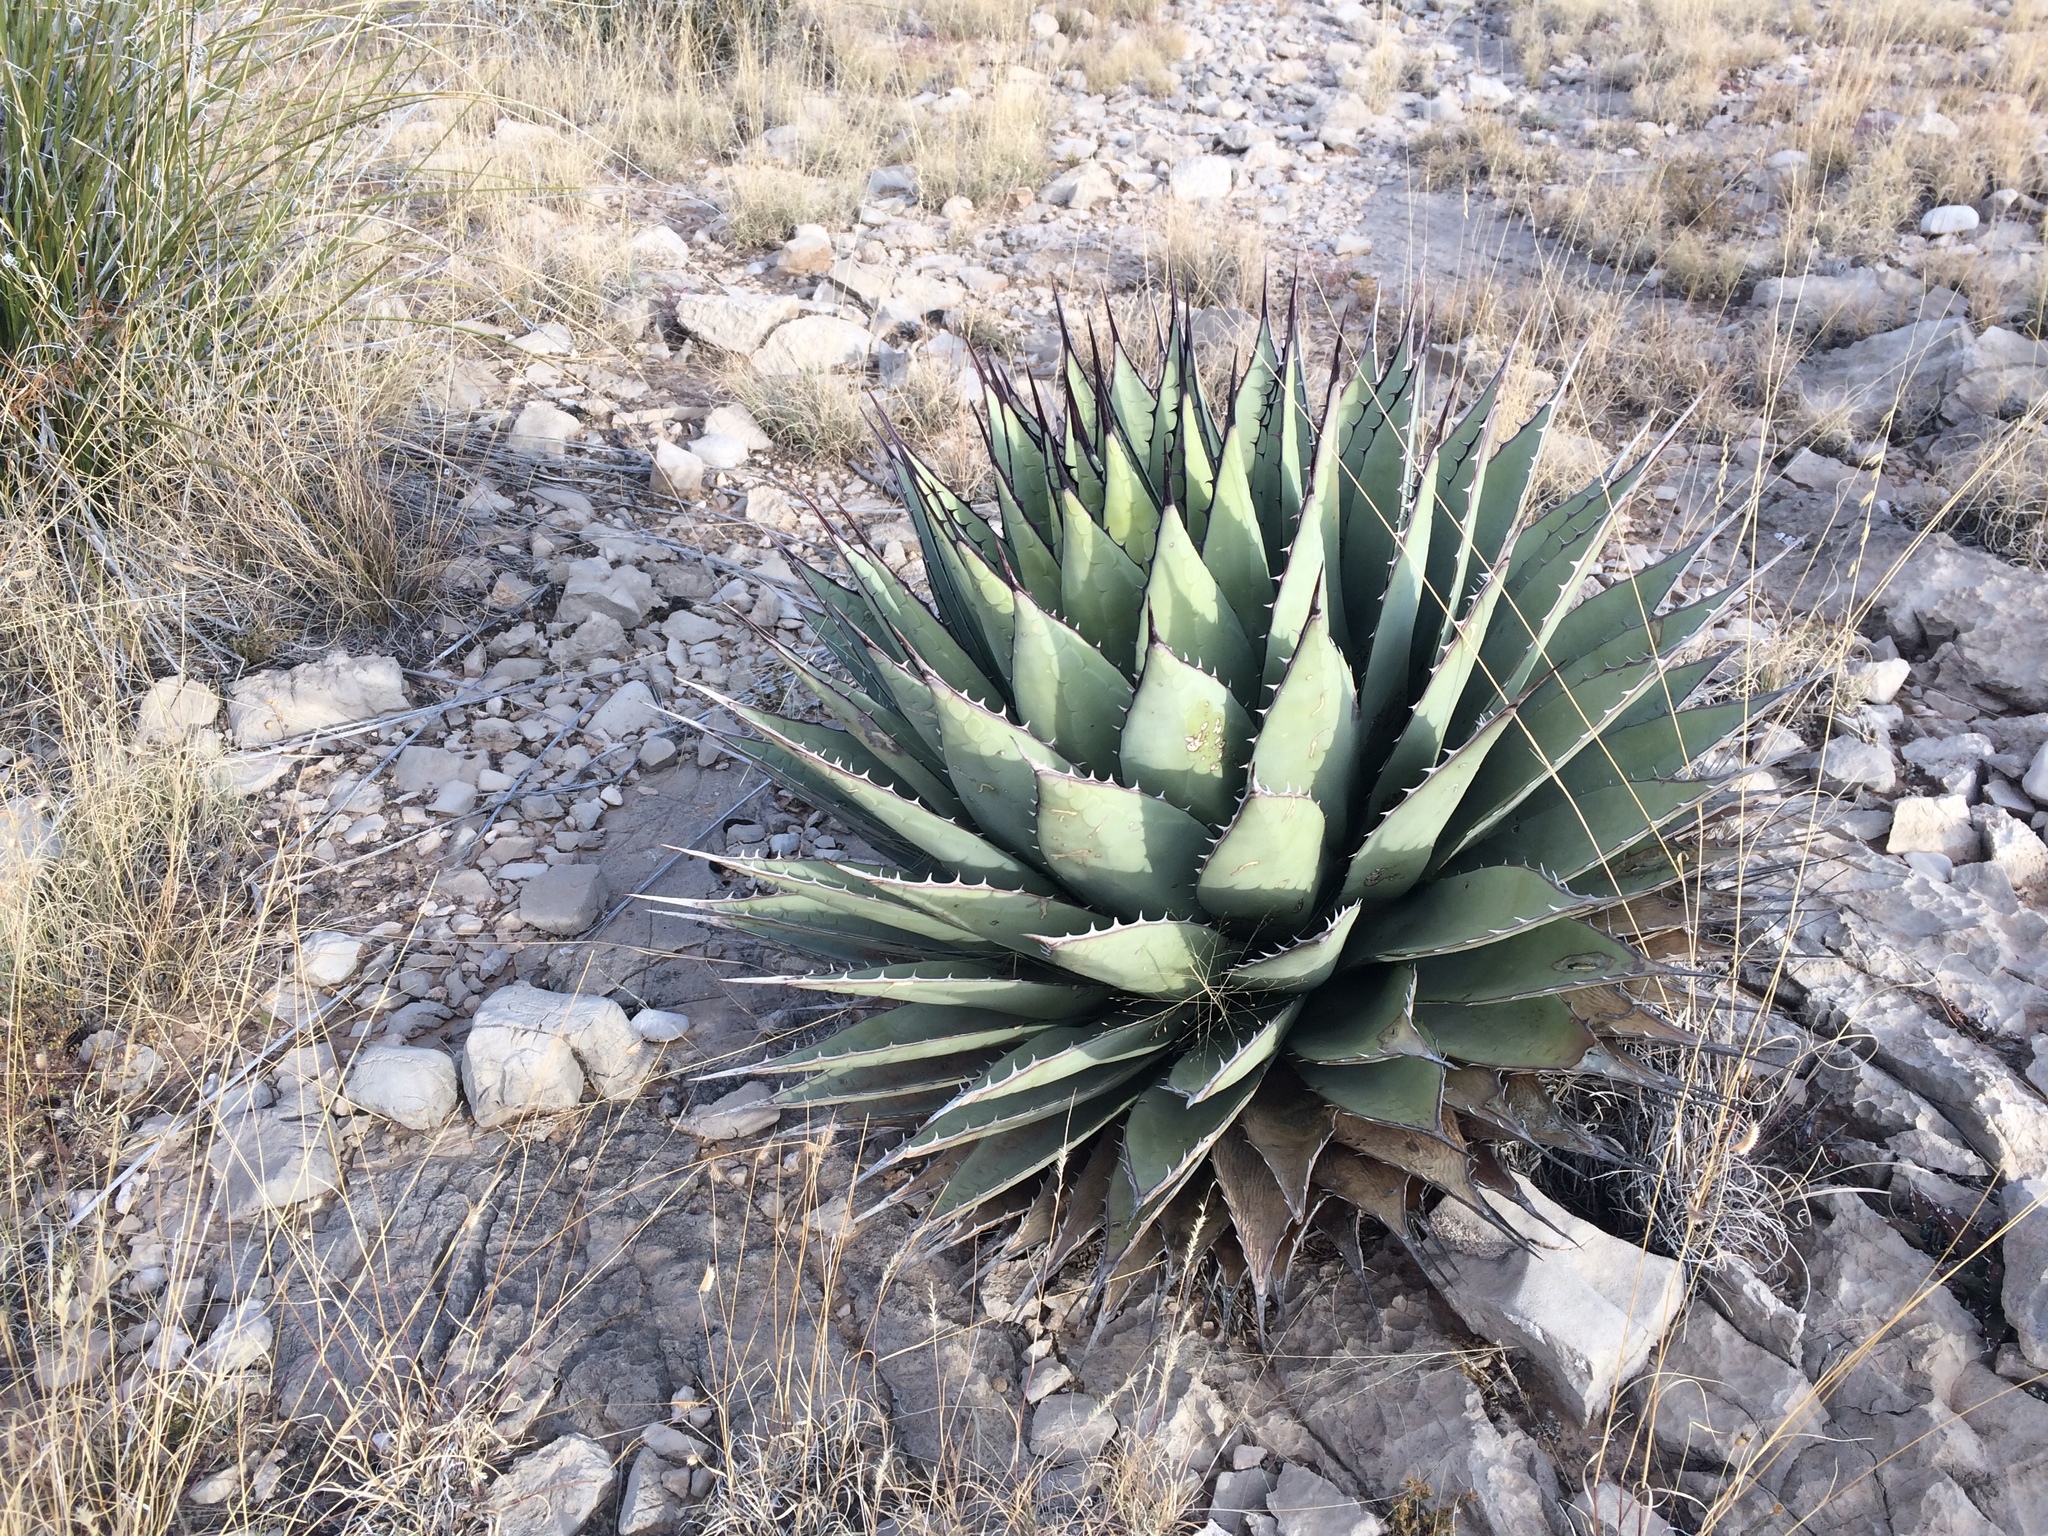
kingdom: Plantae
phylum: Tracheophyta
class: Liliopsida
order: Asparagales
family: Asparagaceae
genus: Agave
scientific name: Agave parryi
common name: Parry's agave
